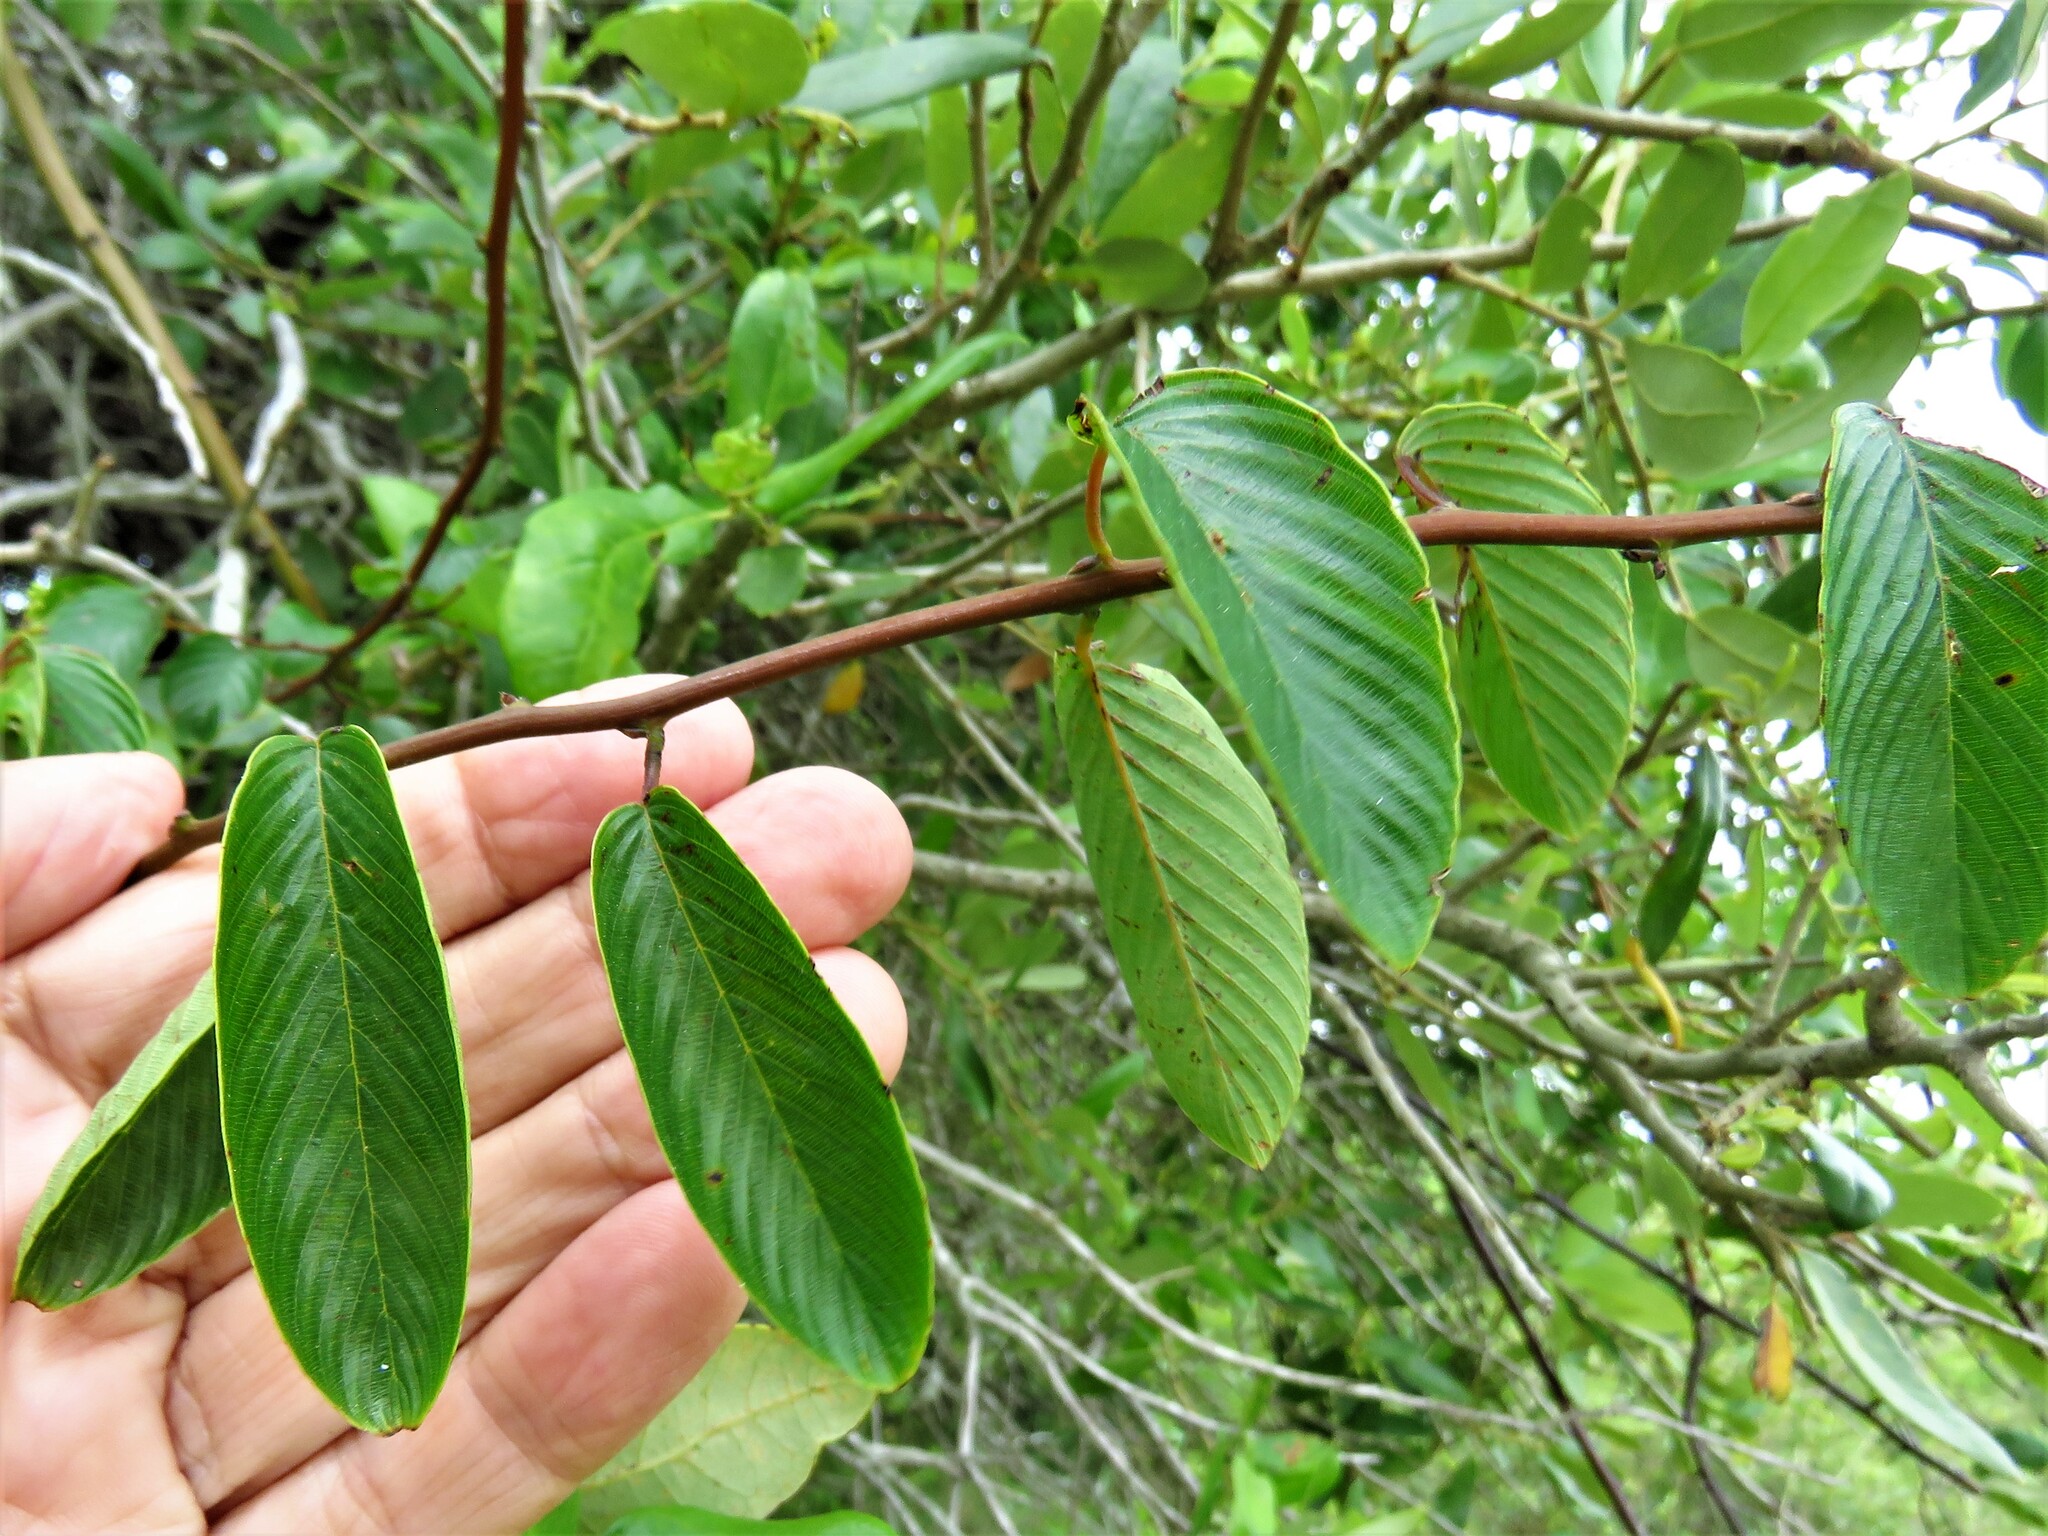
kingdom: Plantae
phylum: Tracheophyta
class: Magnoliopsida
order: Rosales
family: Rhamnaceae
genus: Berchemia
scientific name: Berchemia scandens
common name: Supplejack
